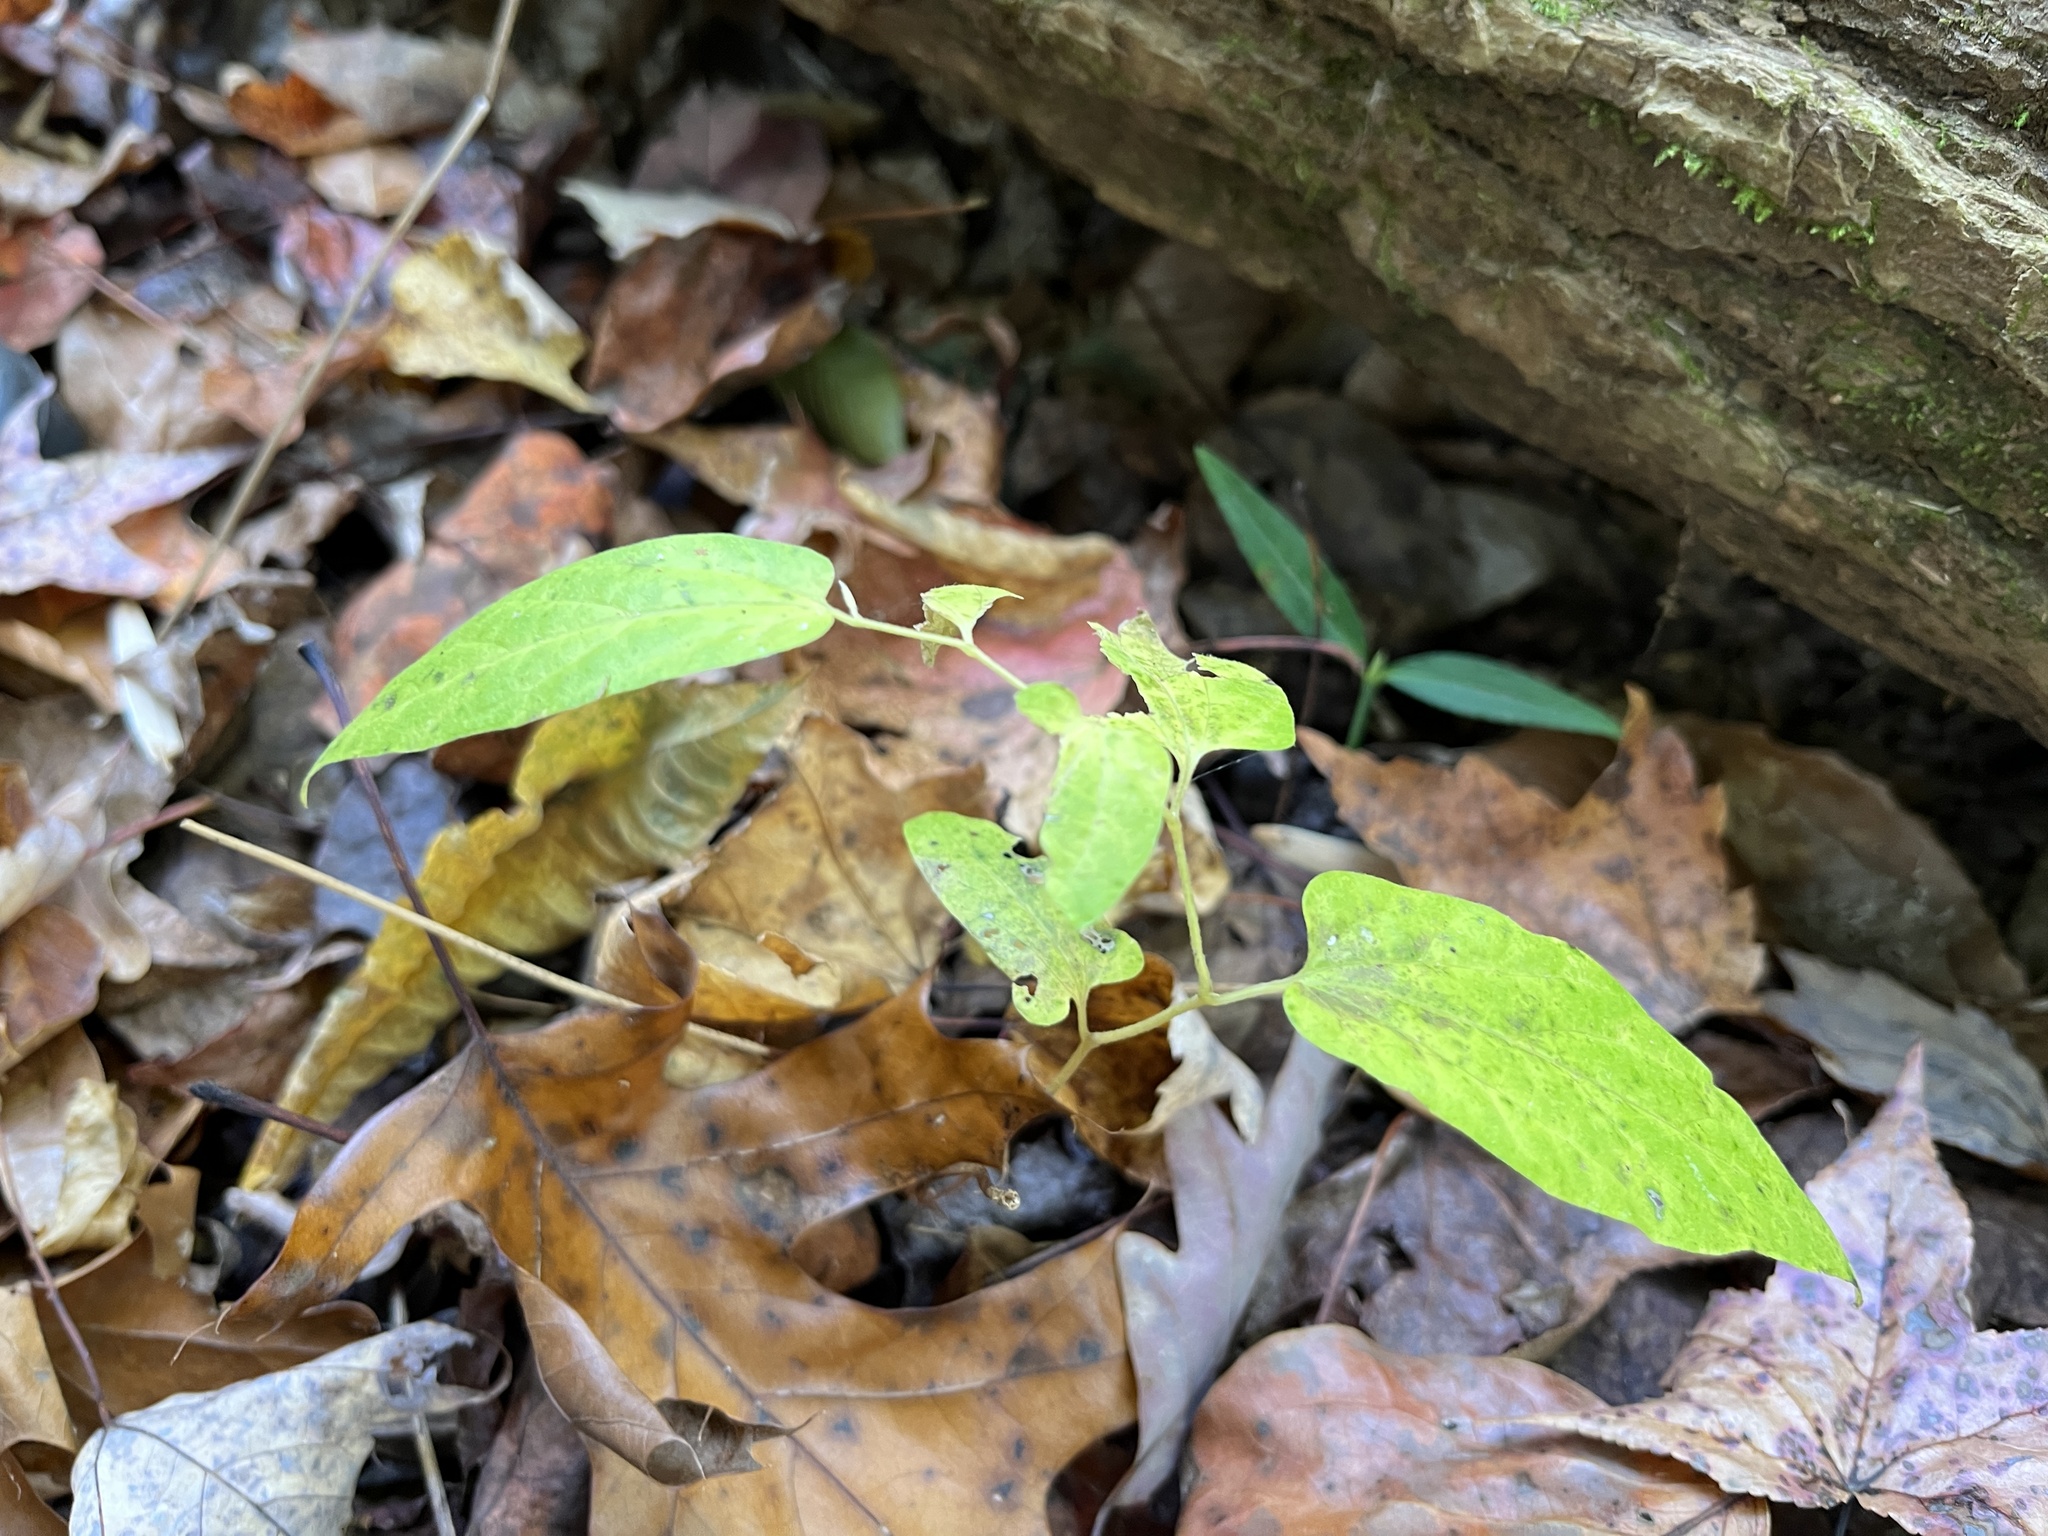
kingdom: Plantae
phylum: Tracheophyta
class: Magnoliopsida
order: Piperales
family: Aristolochiaceae
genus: Endodeca
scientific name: Endodeca serpentaria
